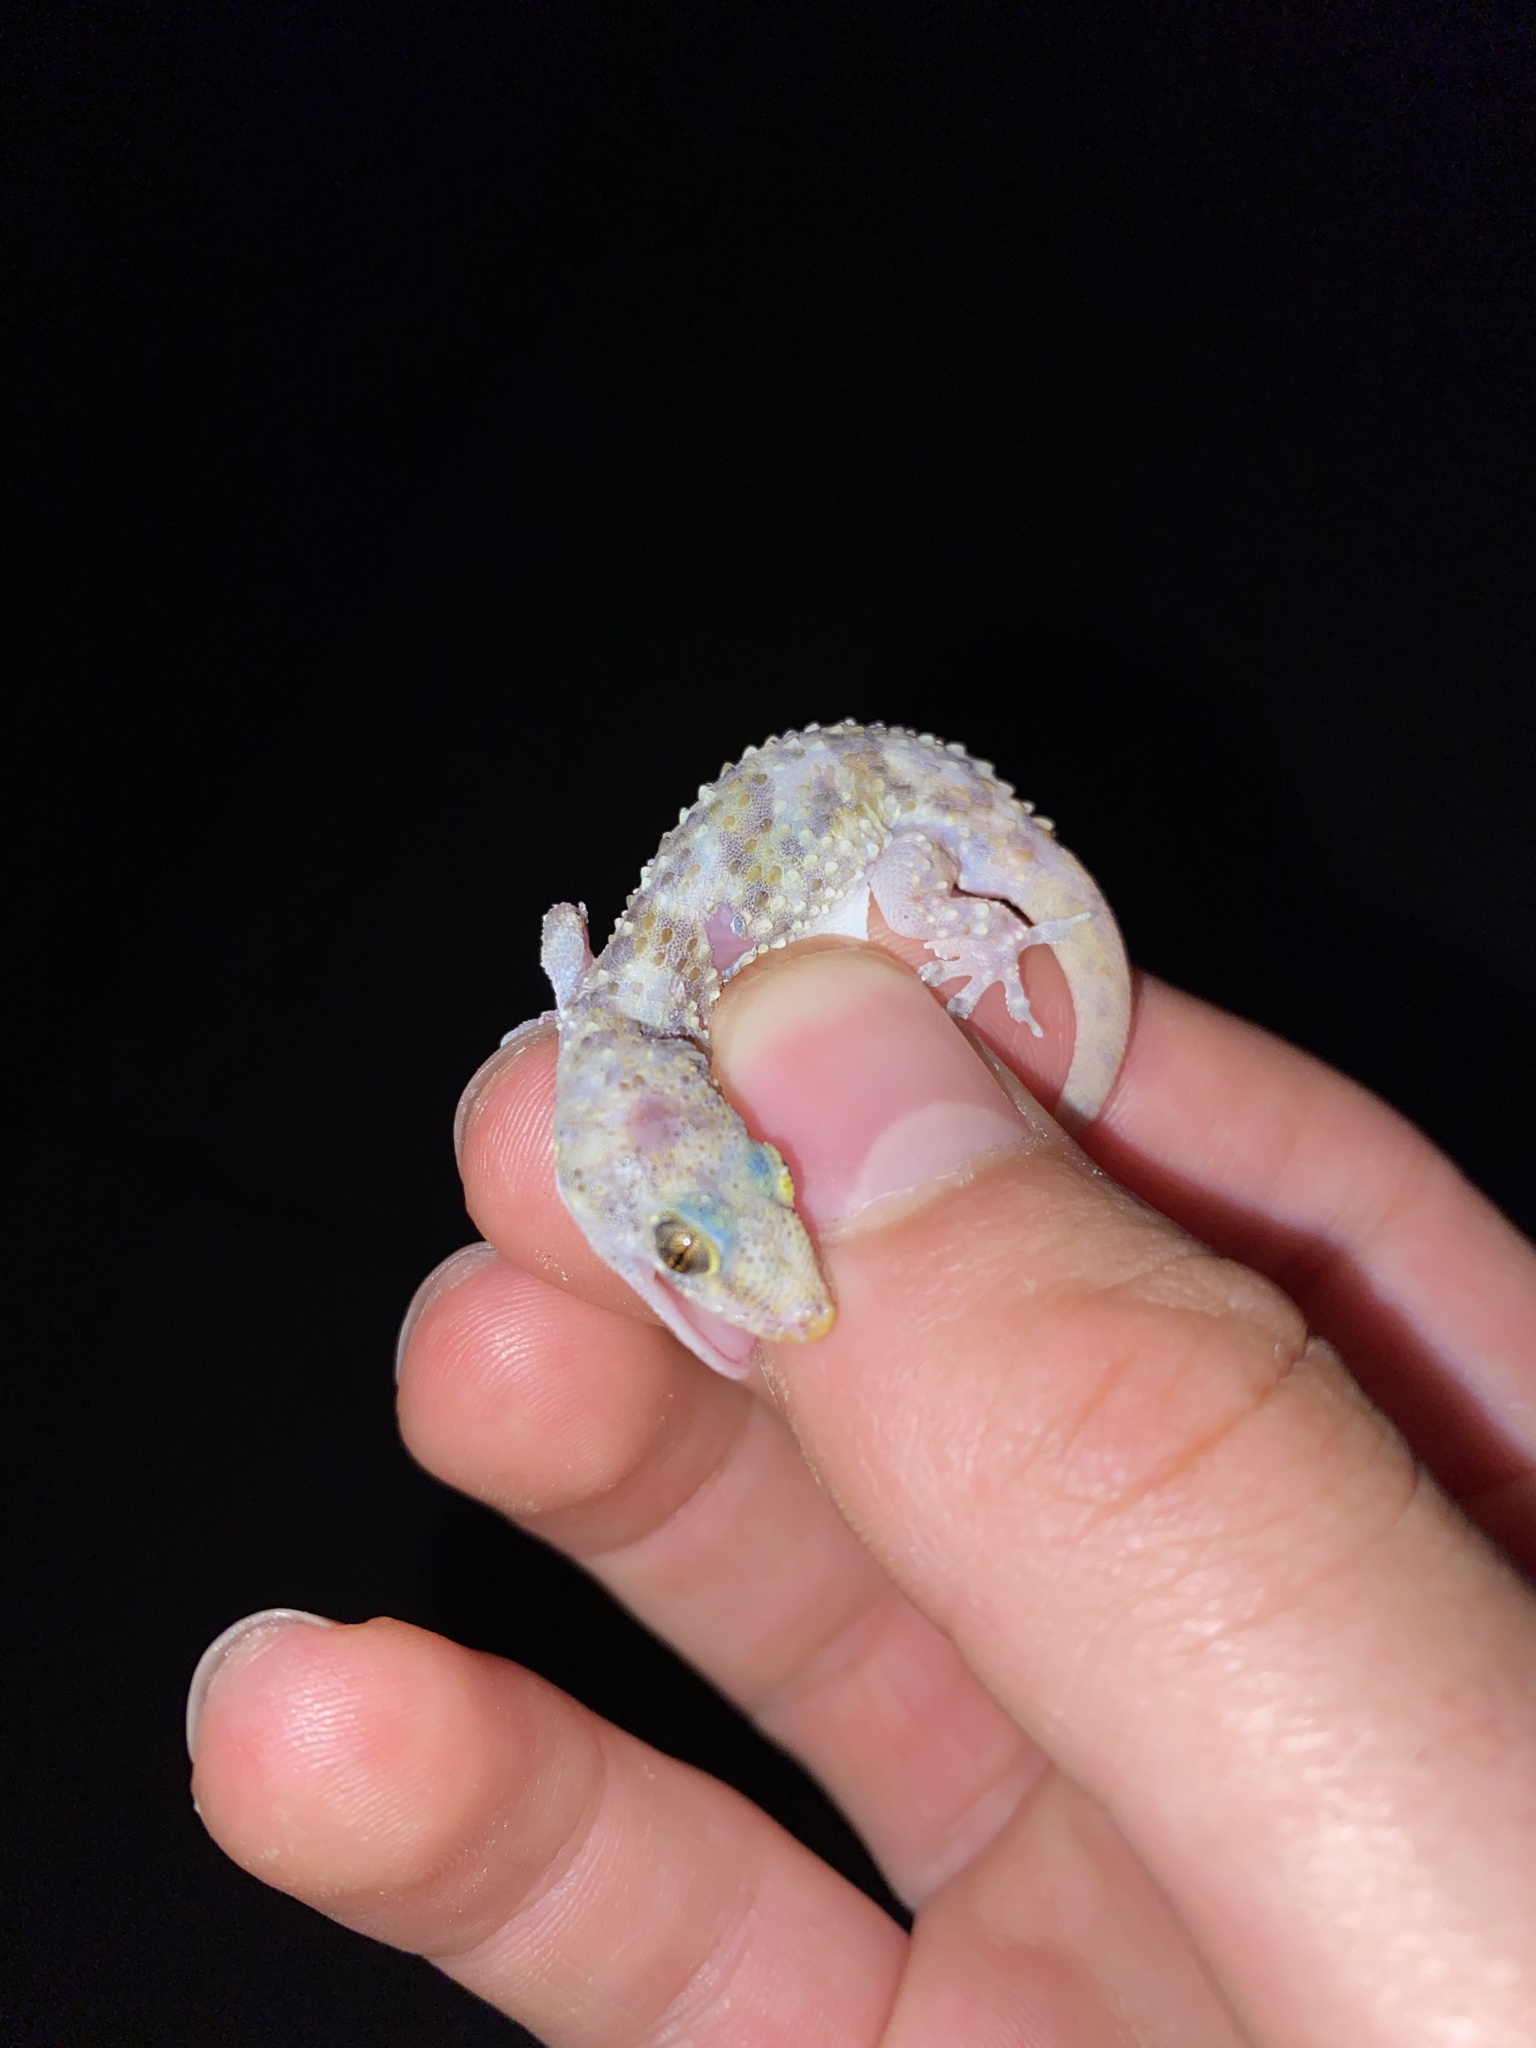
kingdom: Animalia
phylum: Chordata
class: Squamata
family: Gekkonidae
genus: Hemidactylus
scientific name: Hemidactylus turcicus
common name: Turkish gecko
